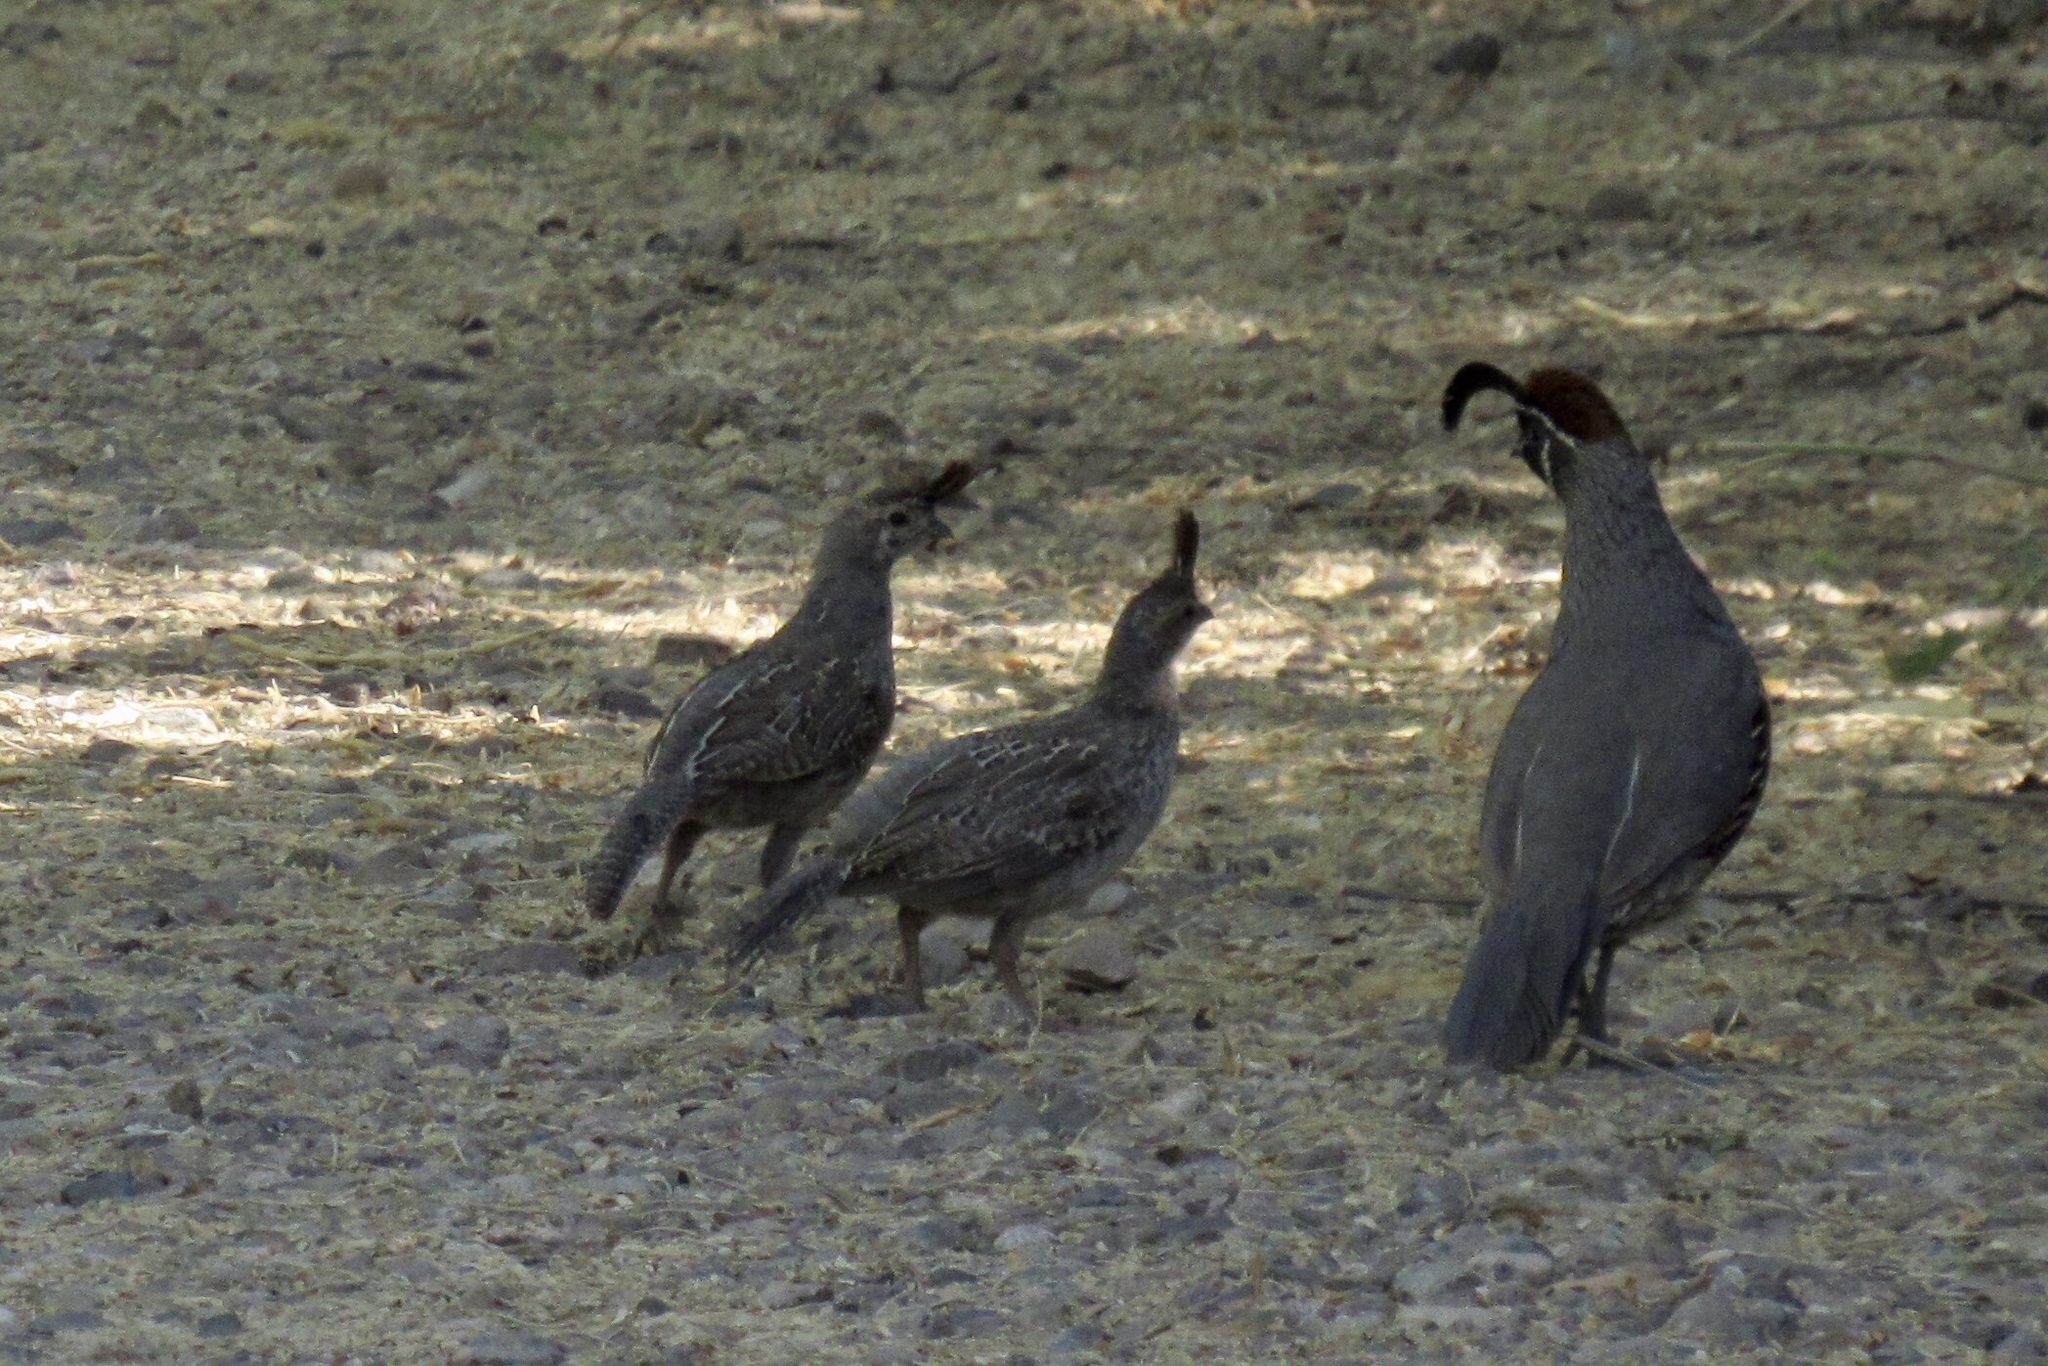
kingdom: Animalia
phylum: Chordata
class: Aves
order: Galliformes
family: Odontophoridae
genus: Callipepla
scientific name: Callipepla gambelii
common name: Gambel's quail
